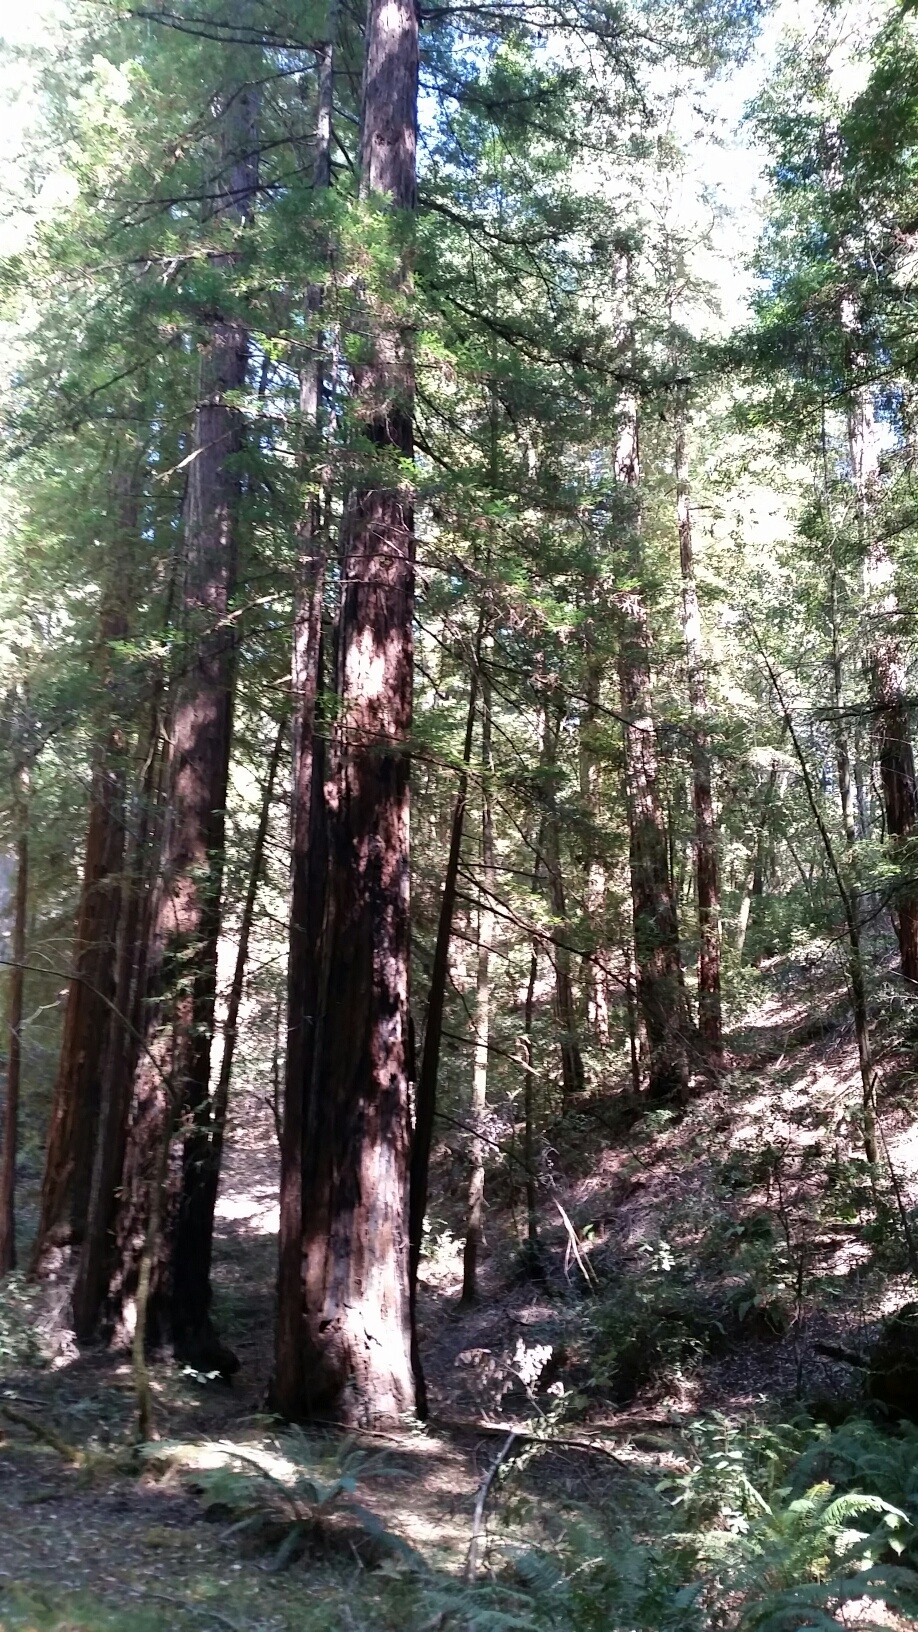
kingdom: Plantae
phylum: Tracheophyta
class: Pinopsida
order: Pinales
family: Cupressaceae
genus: Sequoia
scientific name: Sequoia sempervirens
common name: Coast redwood
